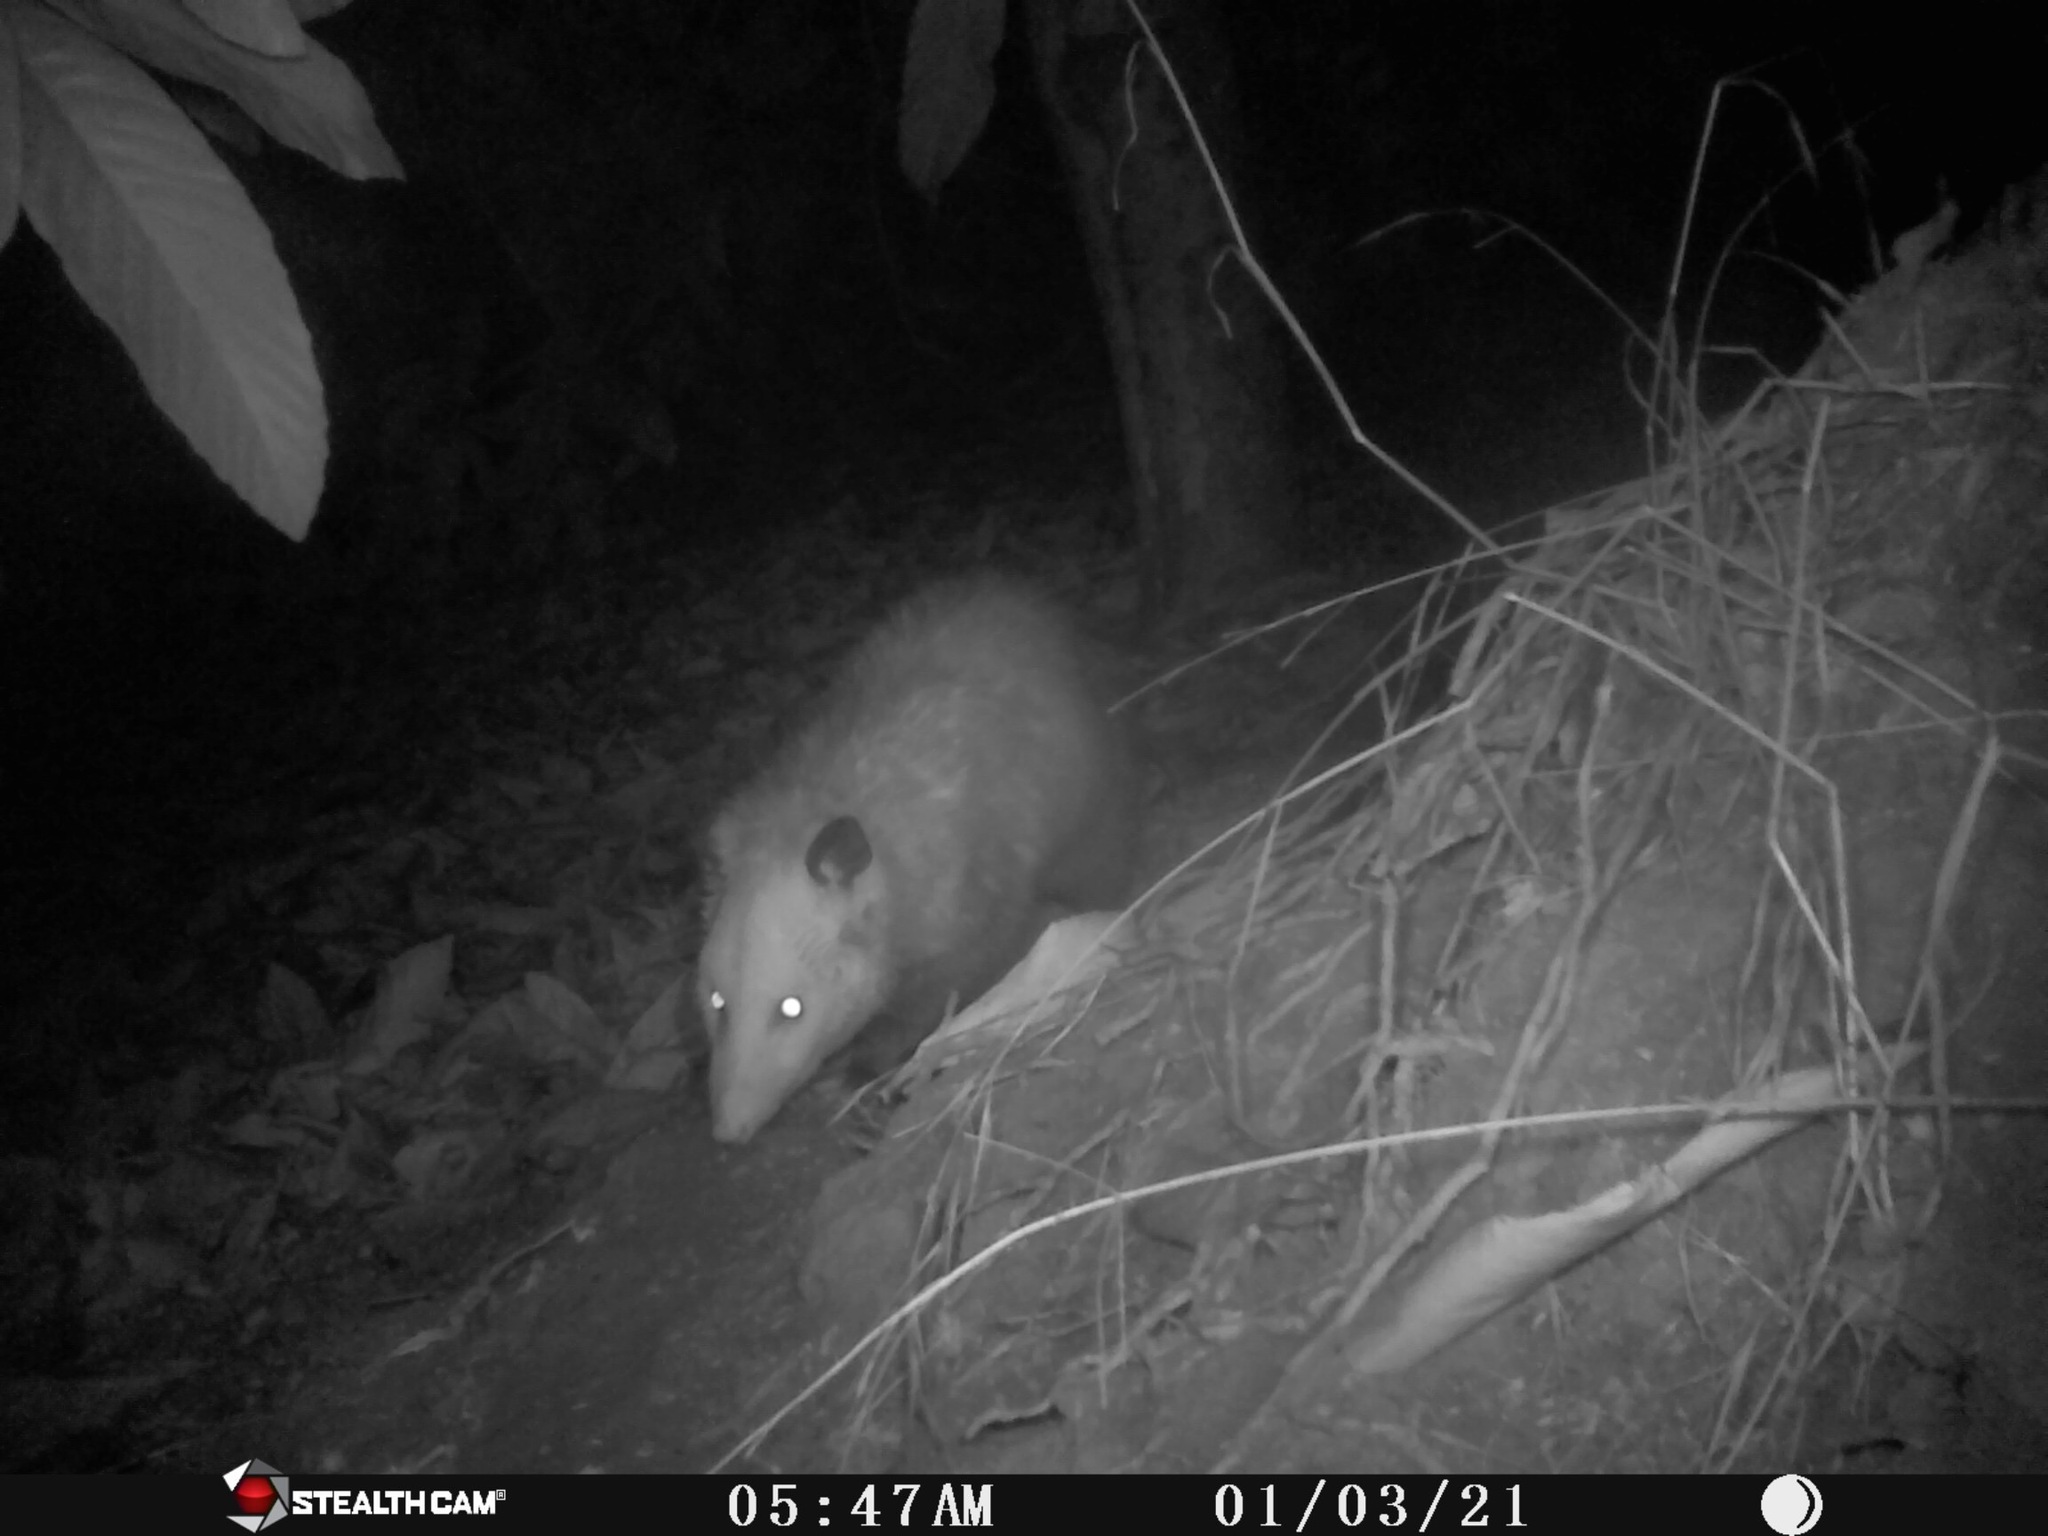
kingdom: Animalia
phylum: Chordata
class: Mammalia
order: Didelphimorphia
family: Didelphidae
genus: Didelphis
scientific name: Didelphis virginiana
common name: Virginia opossum
